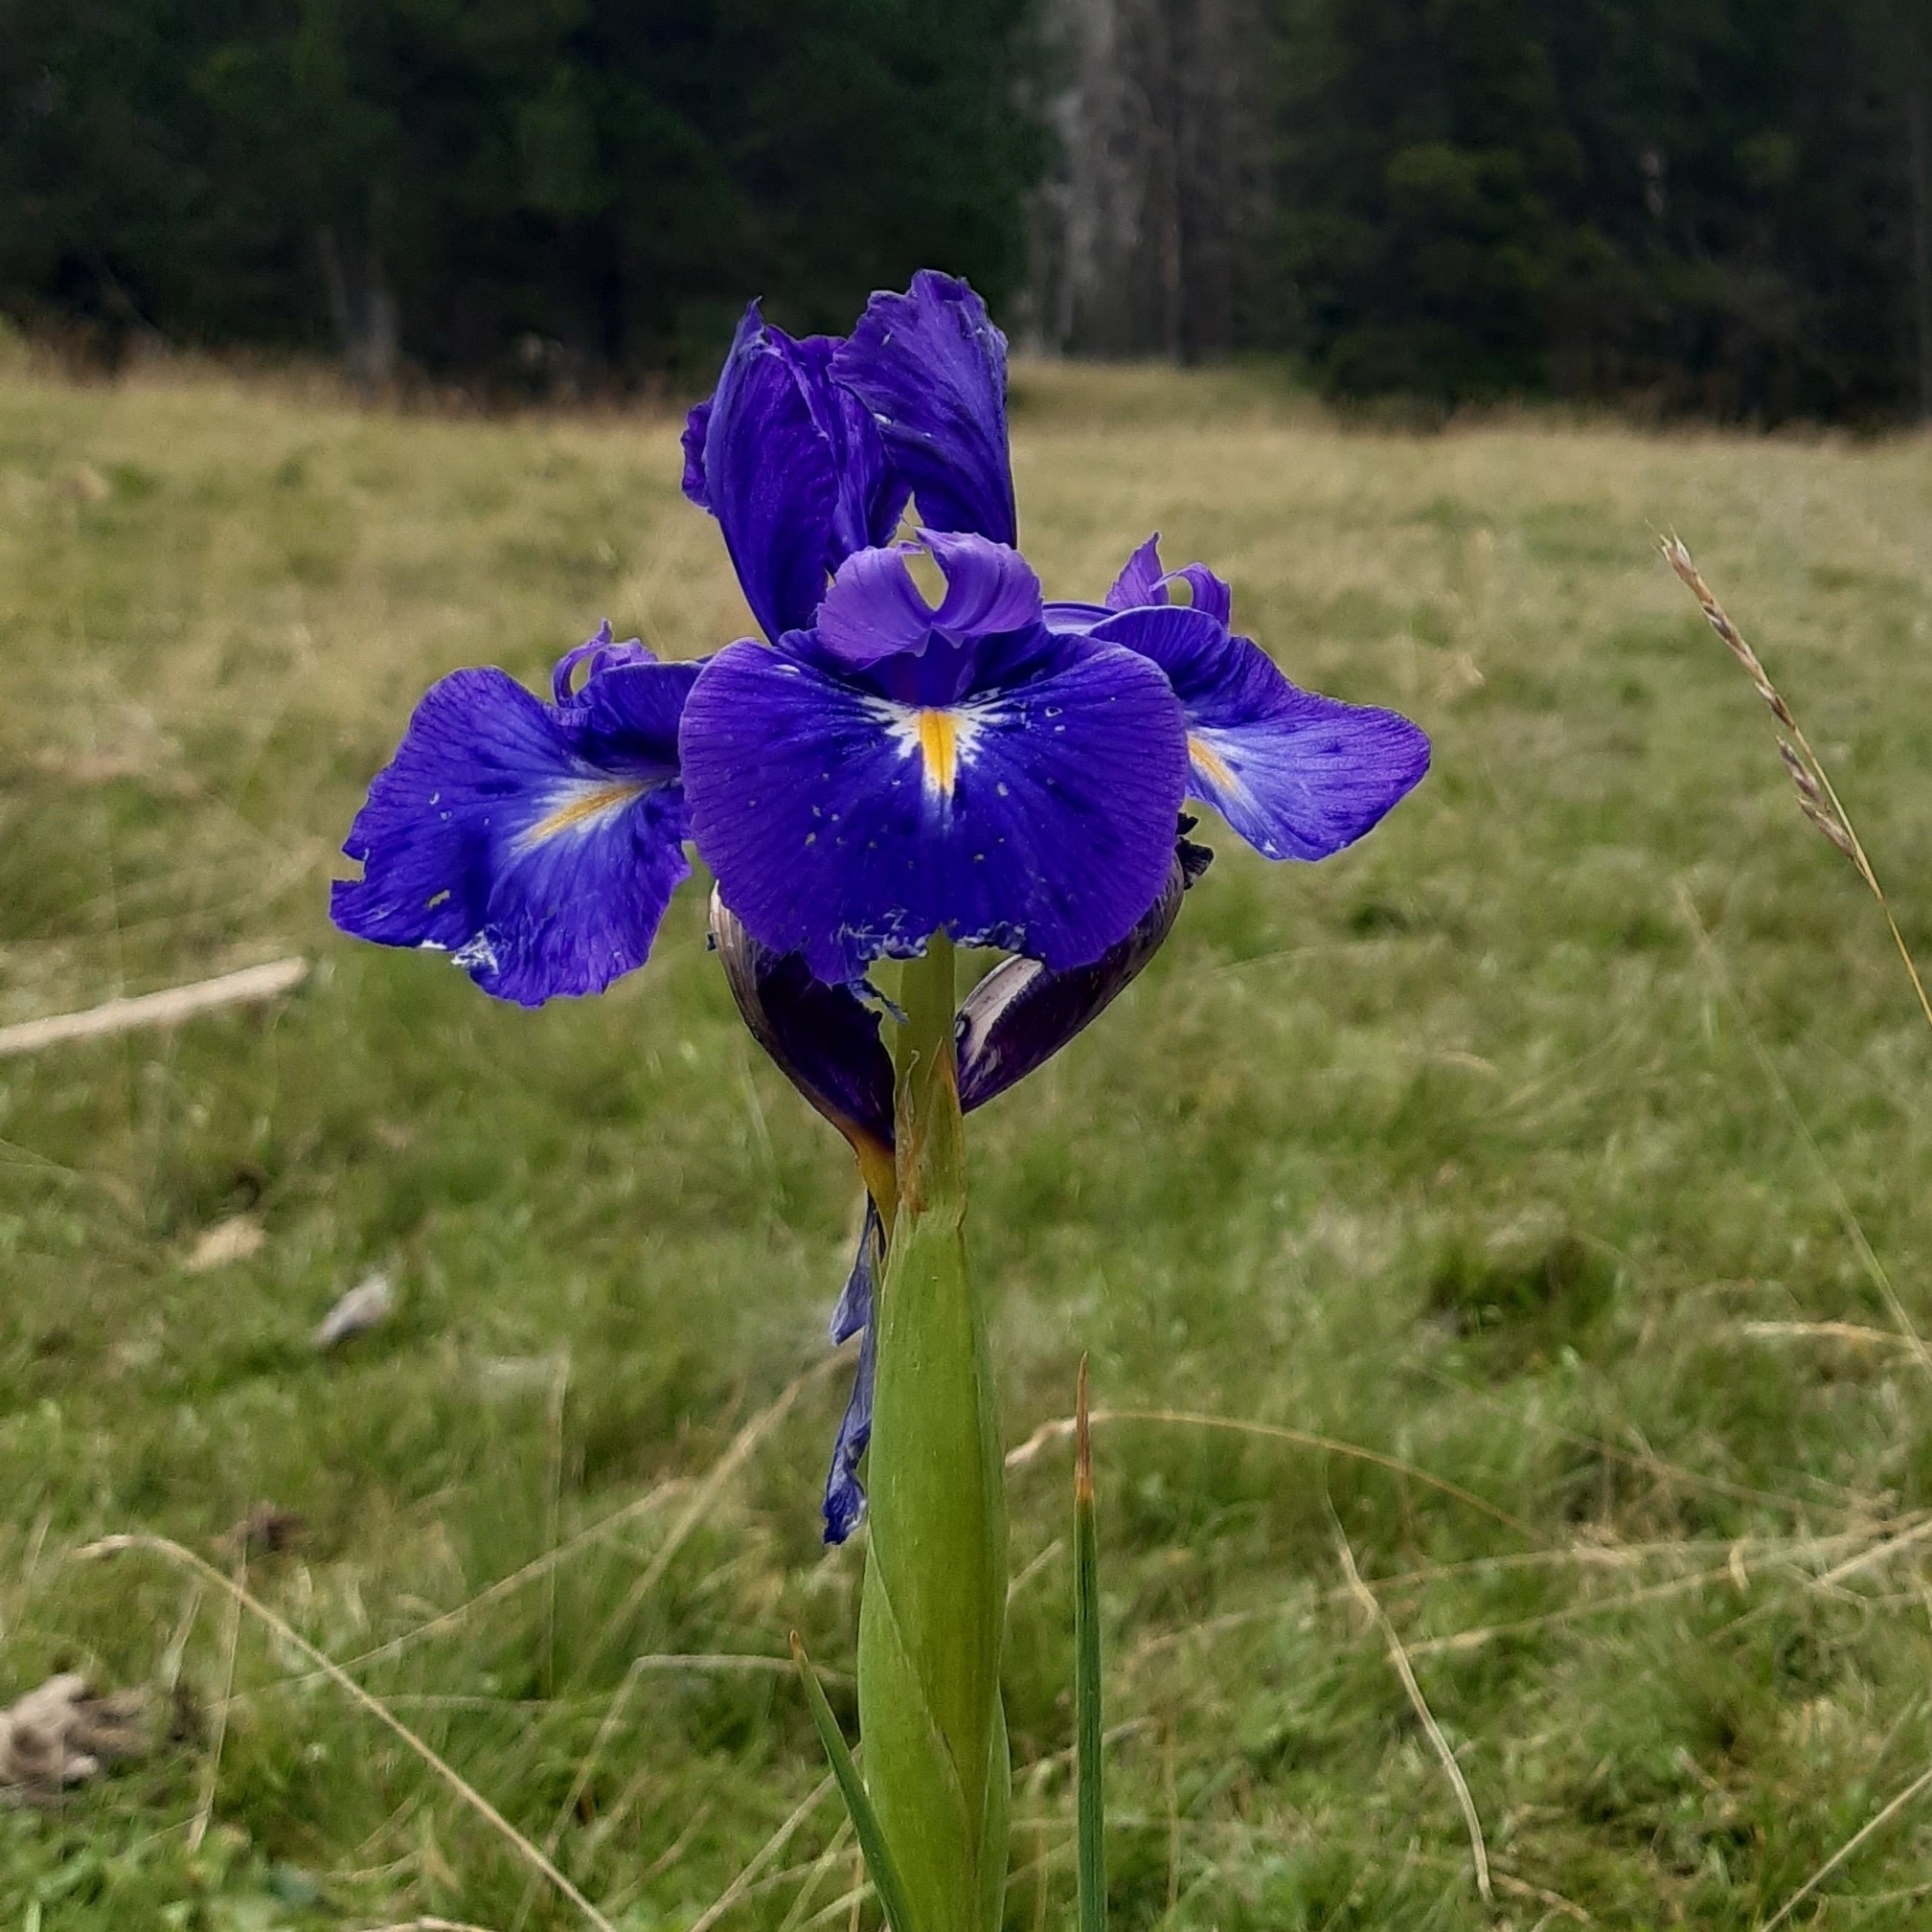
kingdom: Plantae
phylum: Tracheophyta
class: Liliopsida
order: Asparagales
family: Iridaceae
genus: Iris
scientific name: Iris
